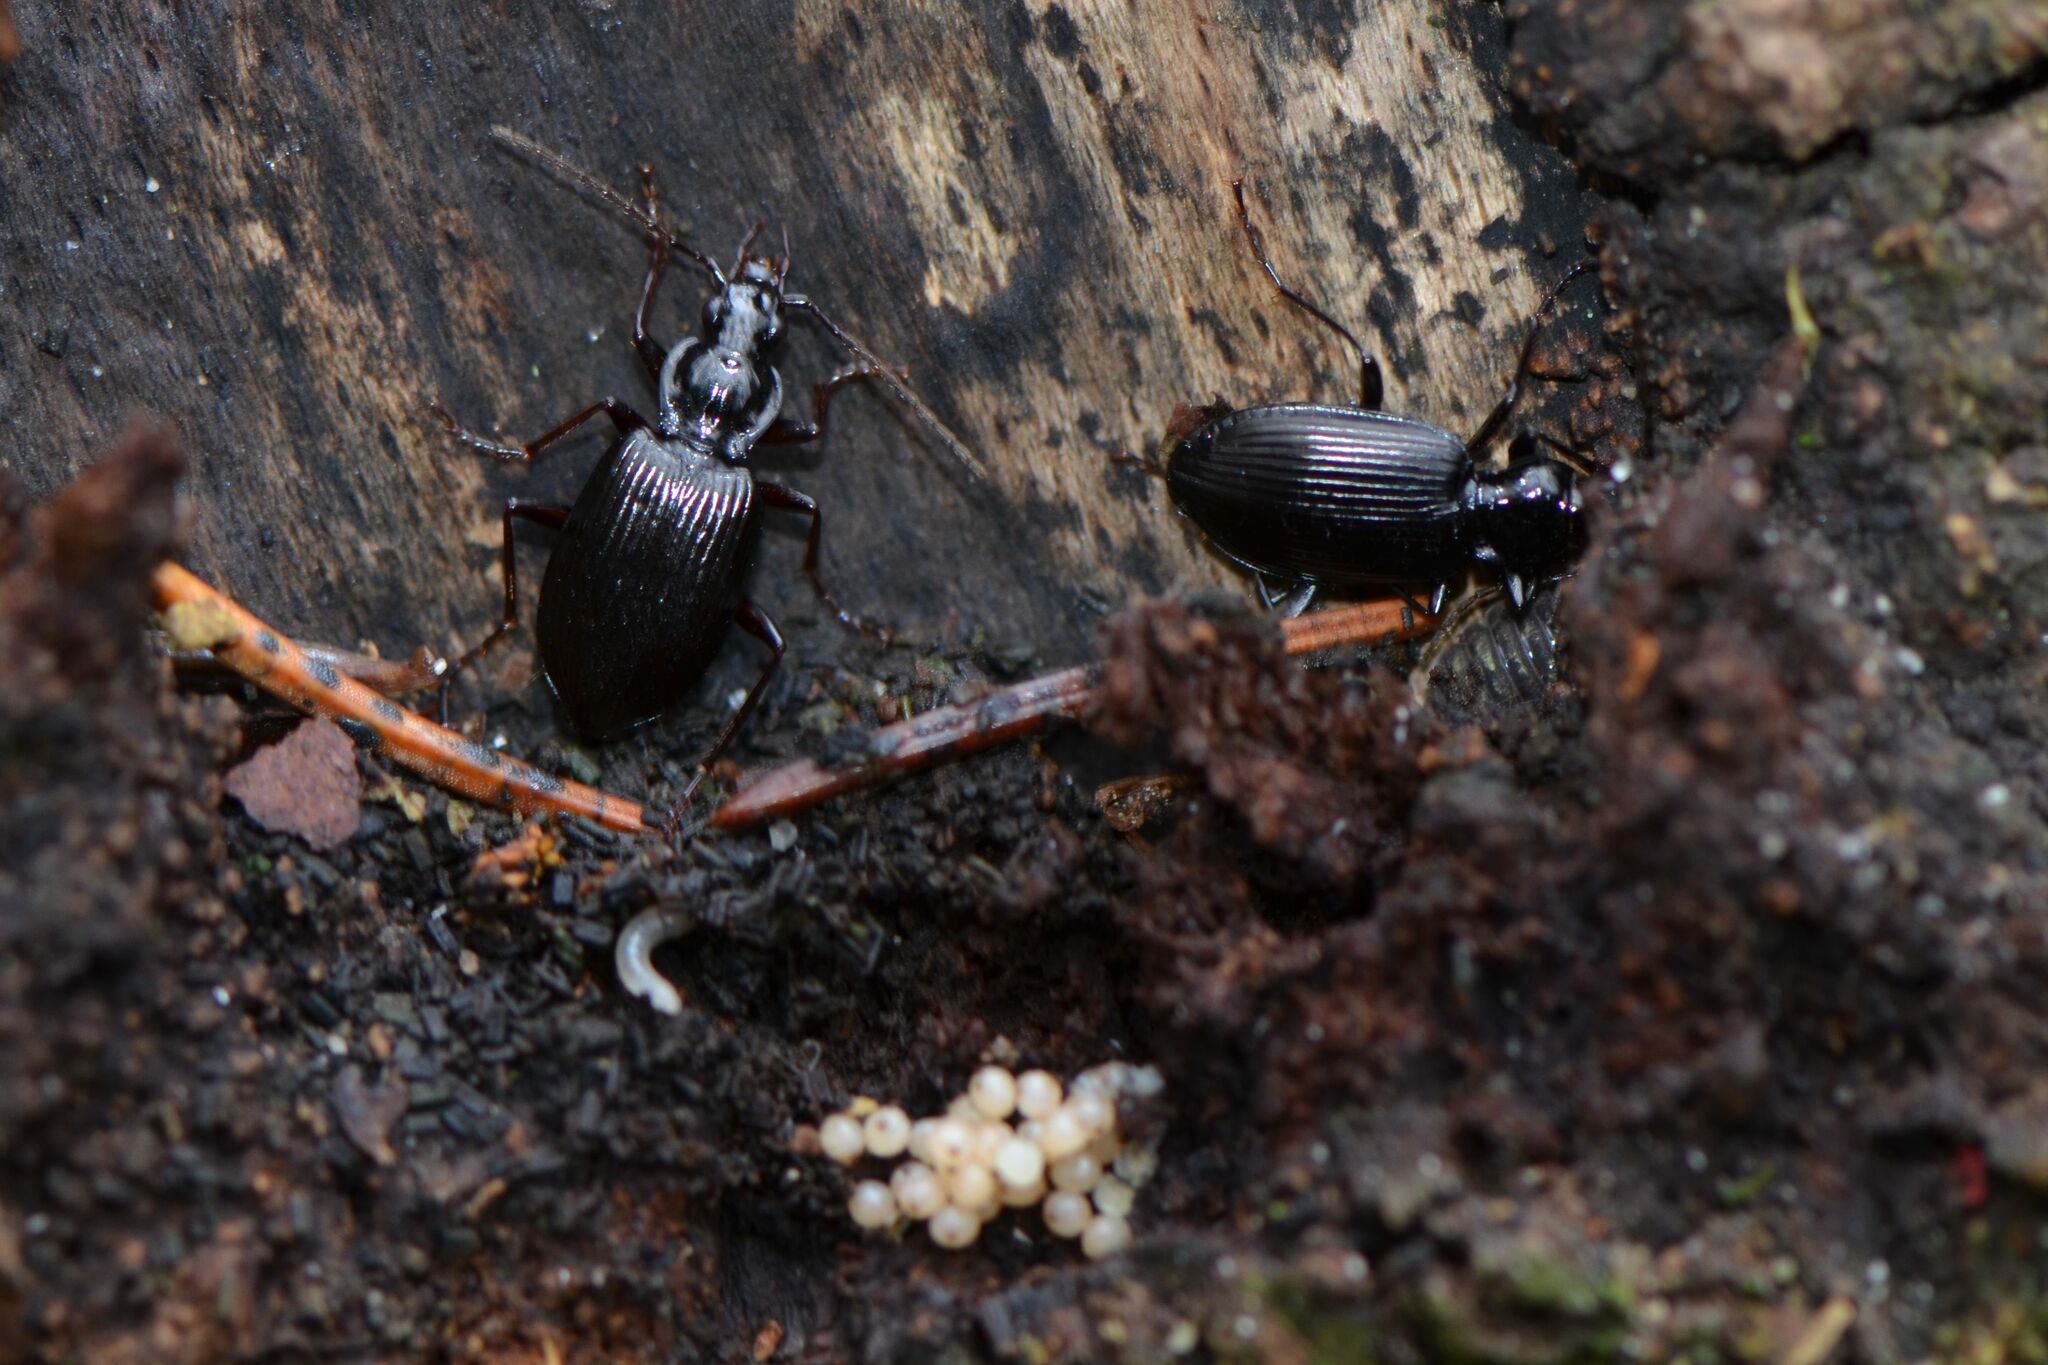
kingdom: Animalia
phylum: Arthropoda
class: Insecta
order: Coleoptera
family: Carabidae
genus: Platynus
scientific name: Platynus assimilis
